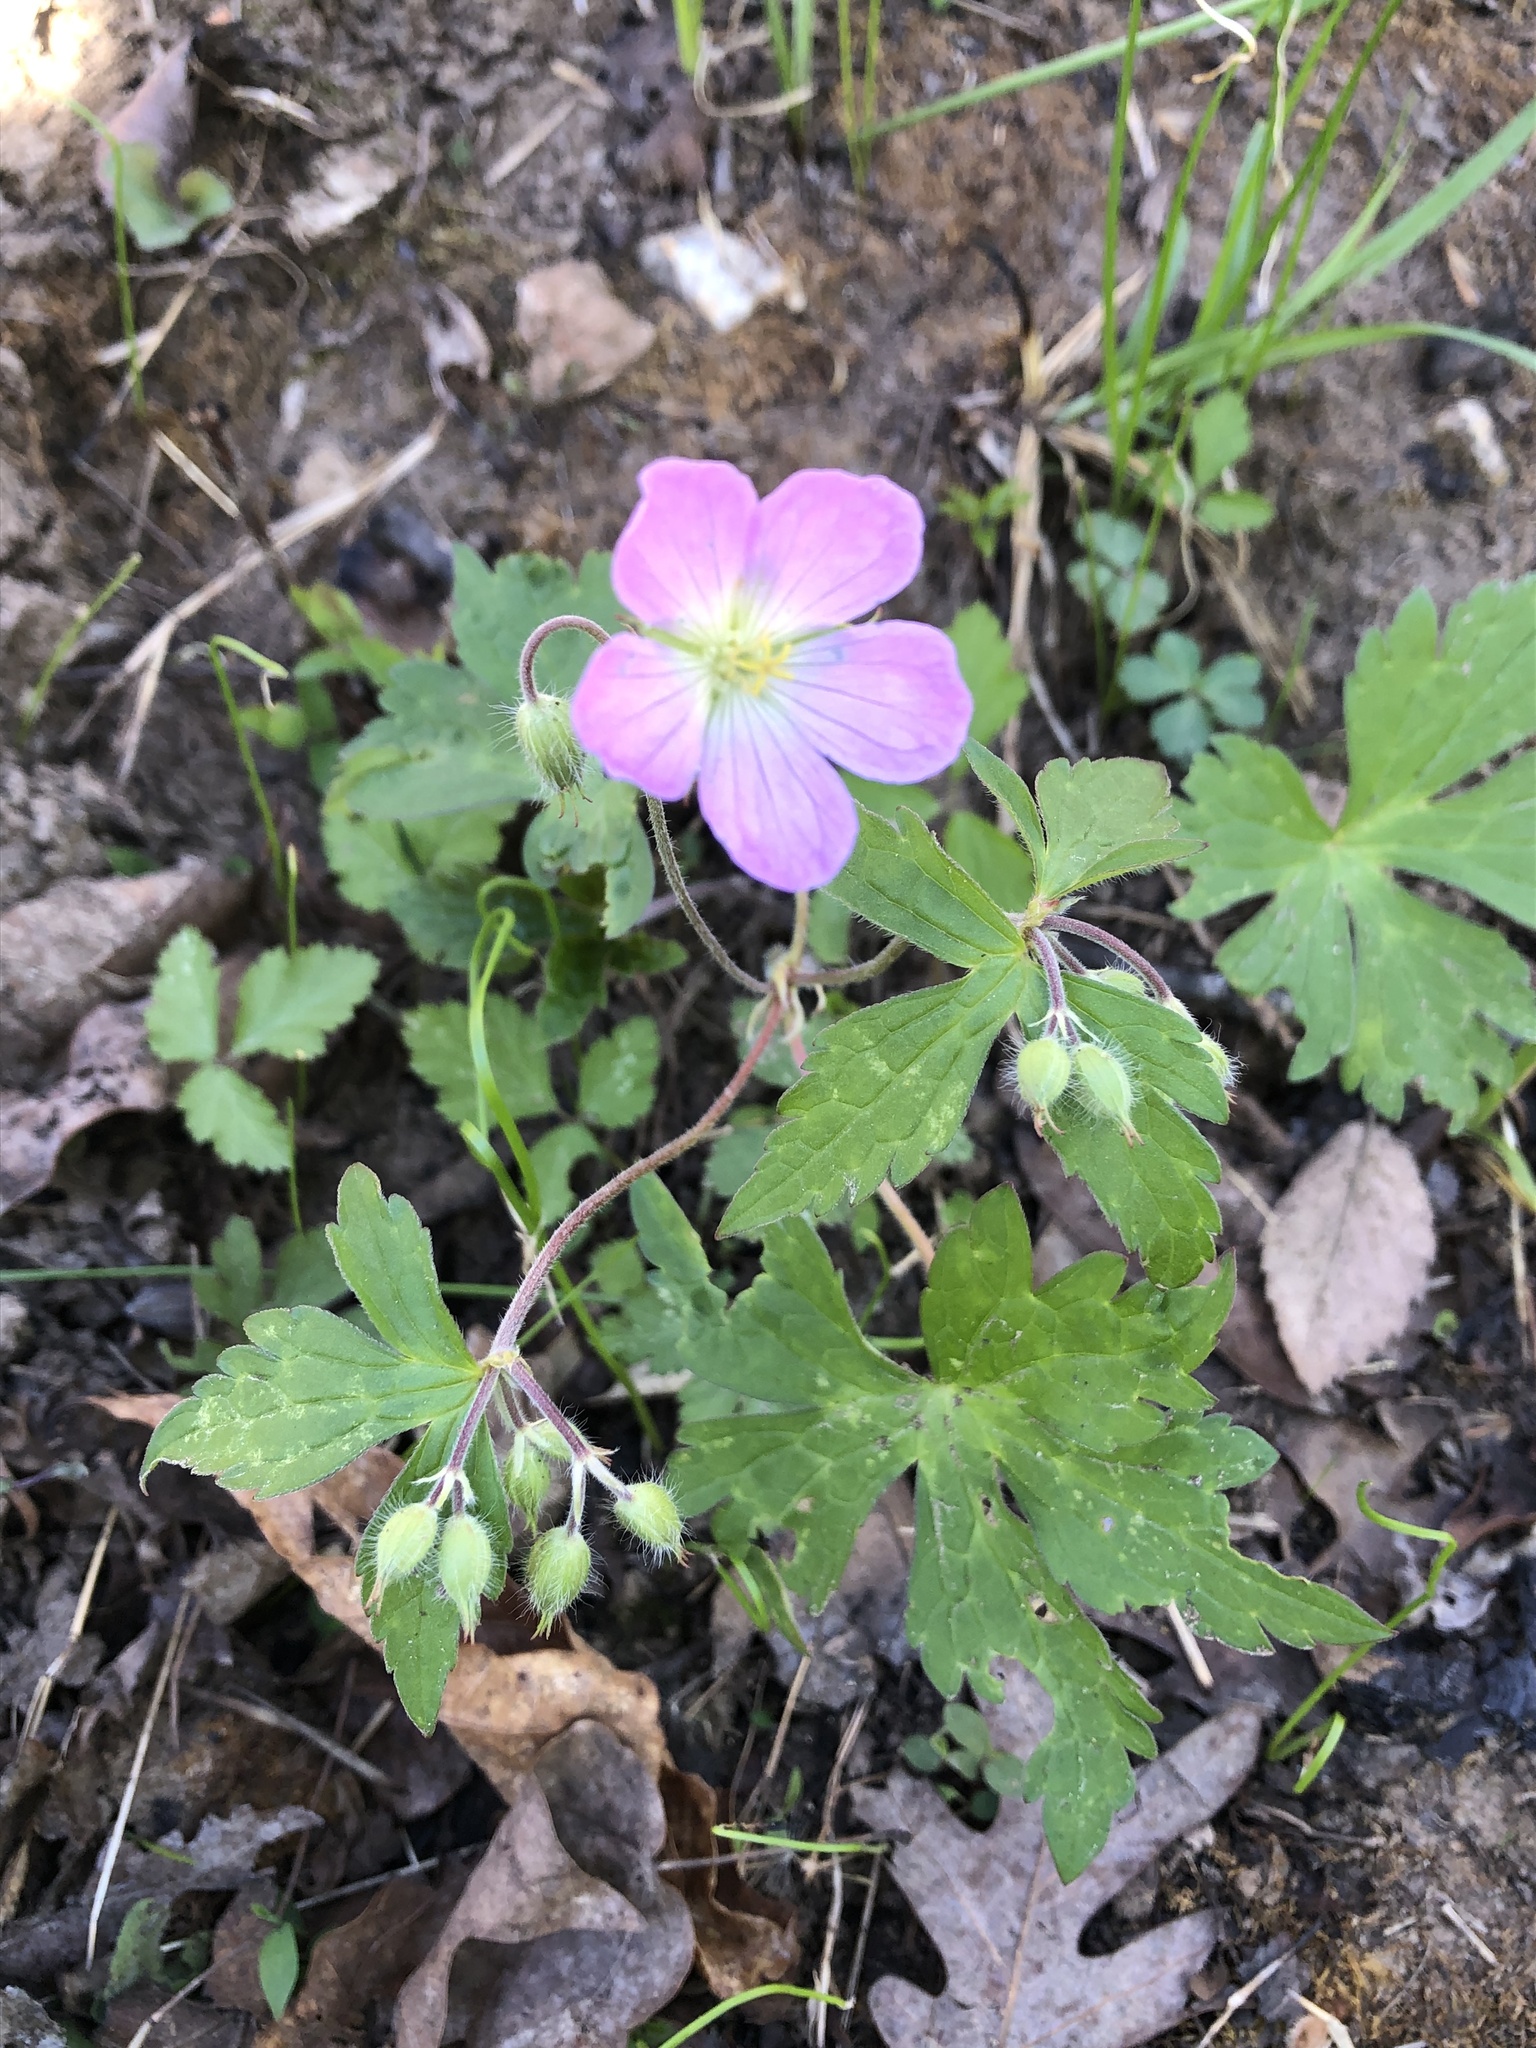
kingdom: Plantae
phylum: Tracheophyta
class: Magnoliopsida
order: Geraniales
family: Geraniaceae
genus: Geranium
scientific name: Geranium maculatum
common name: Spotted geranium
